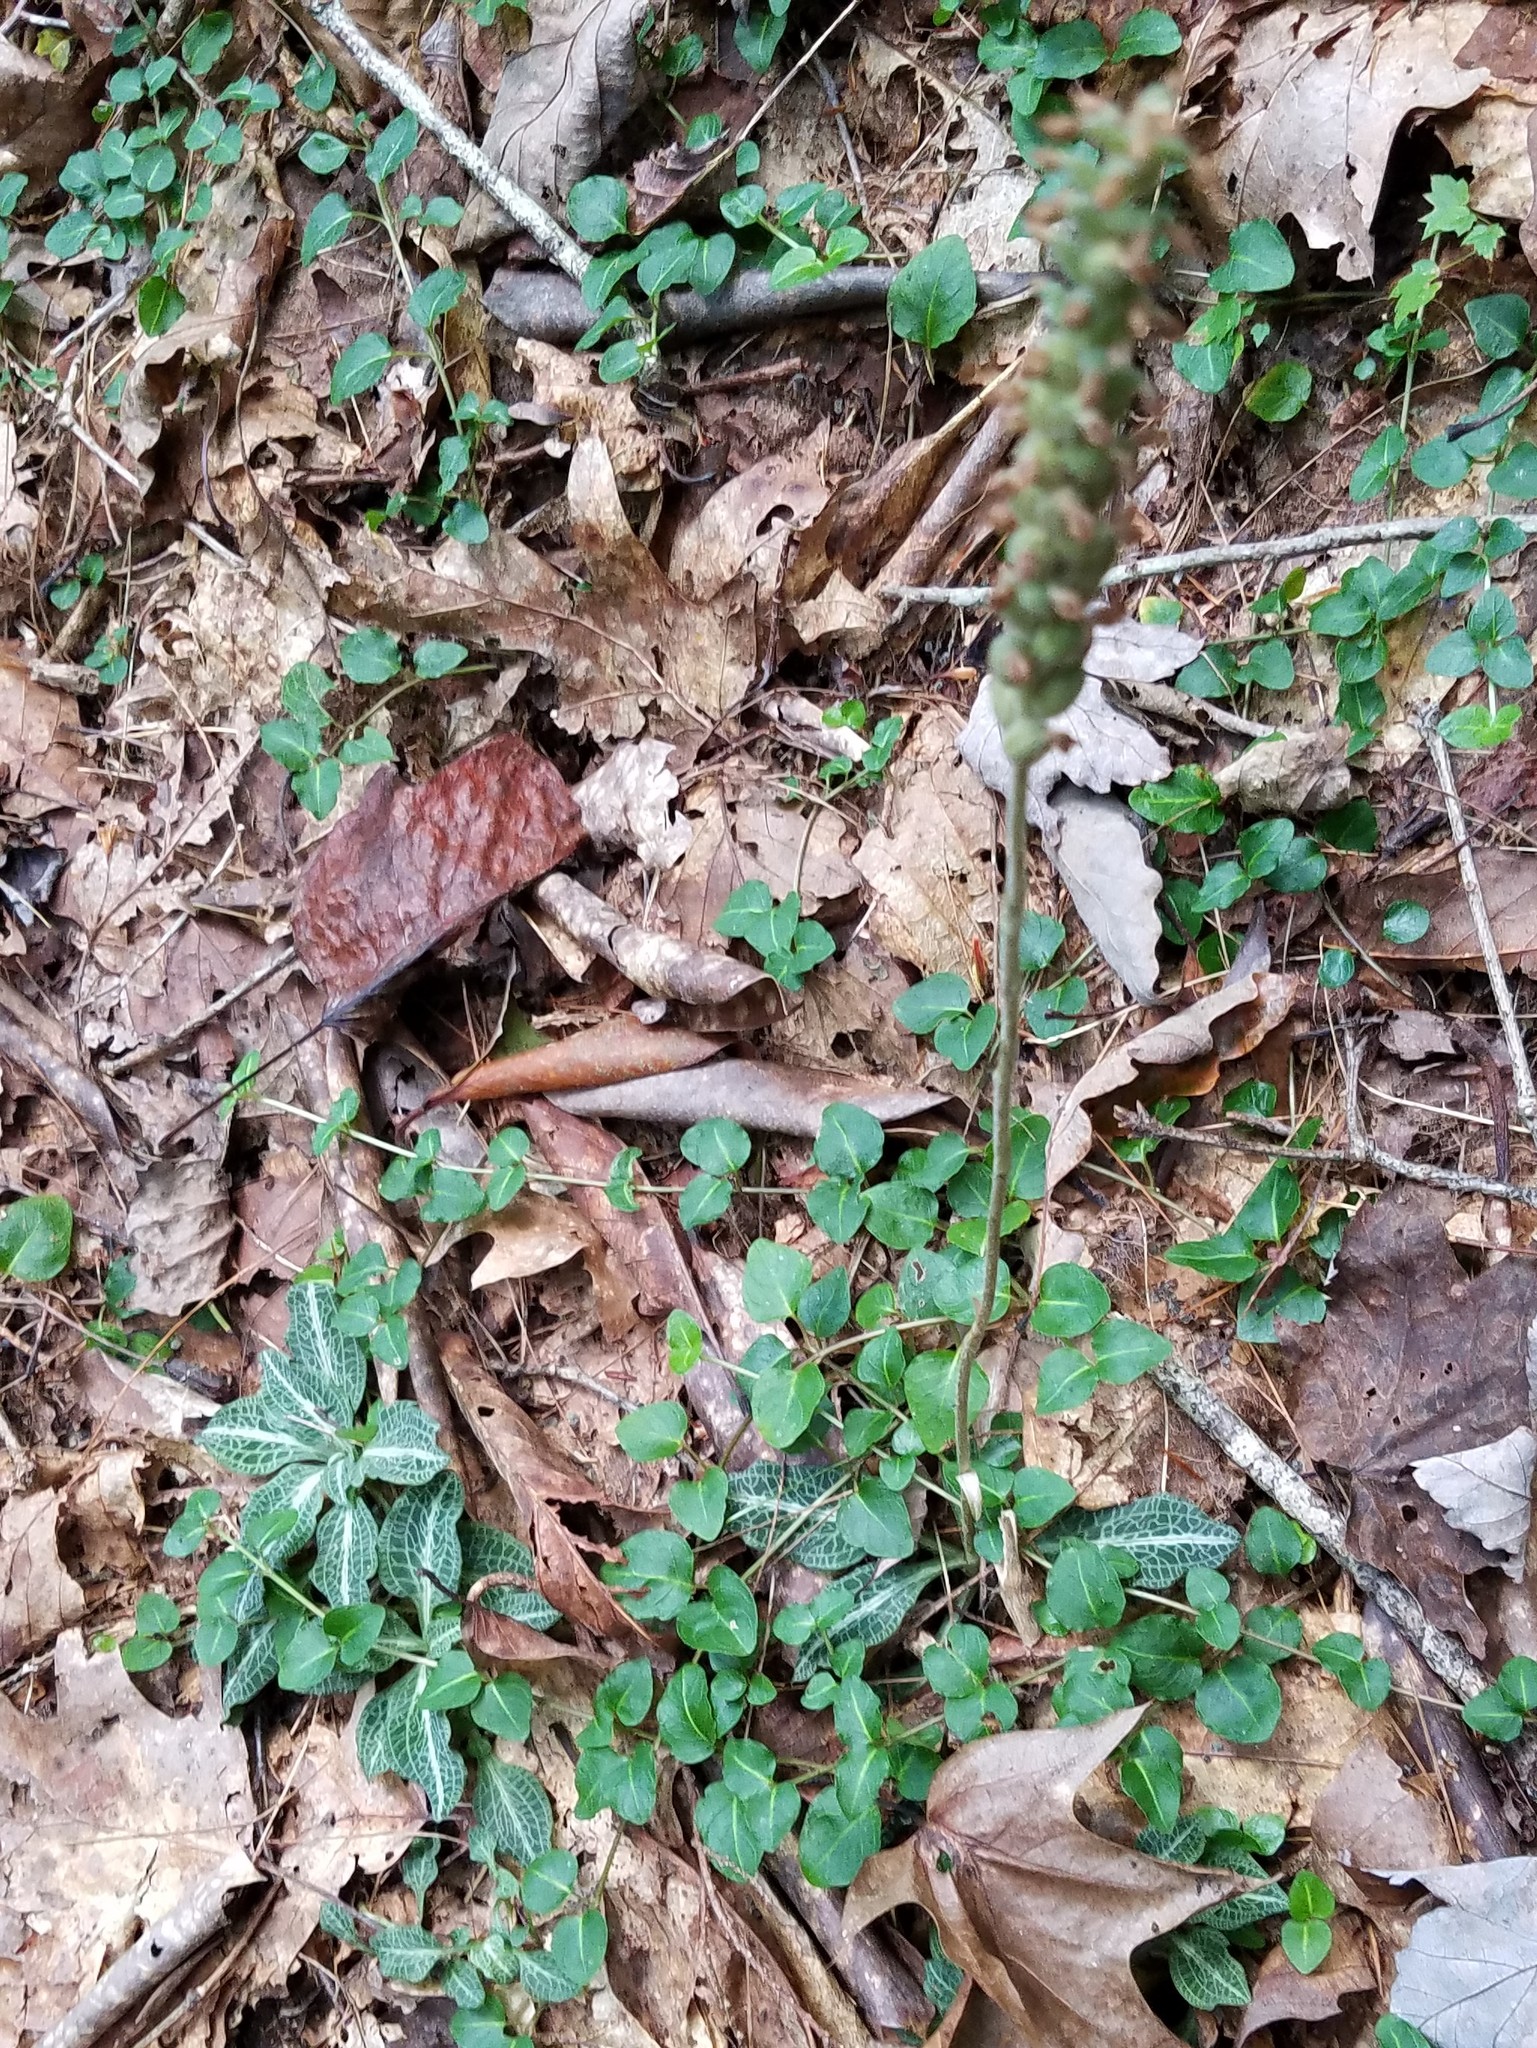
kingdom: Plantae
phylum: Tracheophyta
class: Liliopsida
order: Asparagales
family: Orchidaceae
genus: Goodyera
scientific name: Goodyera pubescens
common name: Downy rattlesnake-plantain
